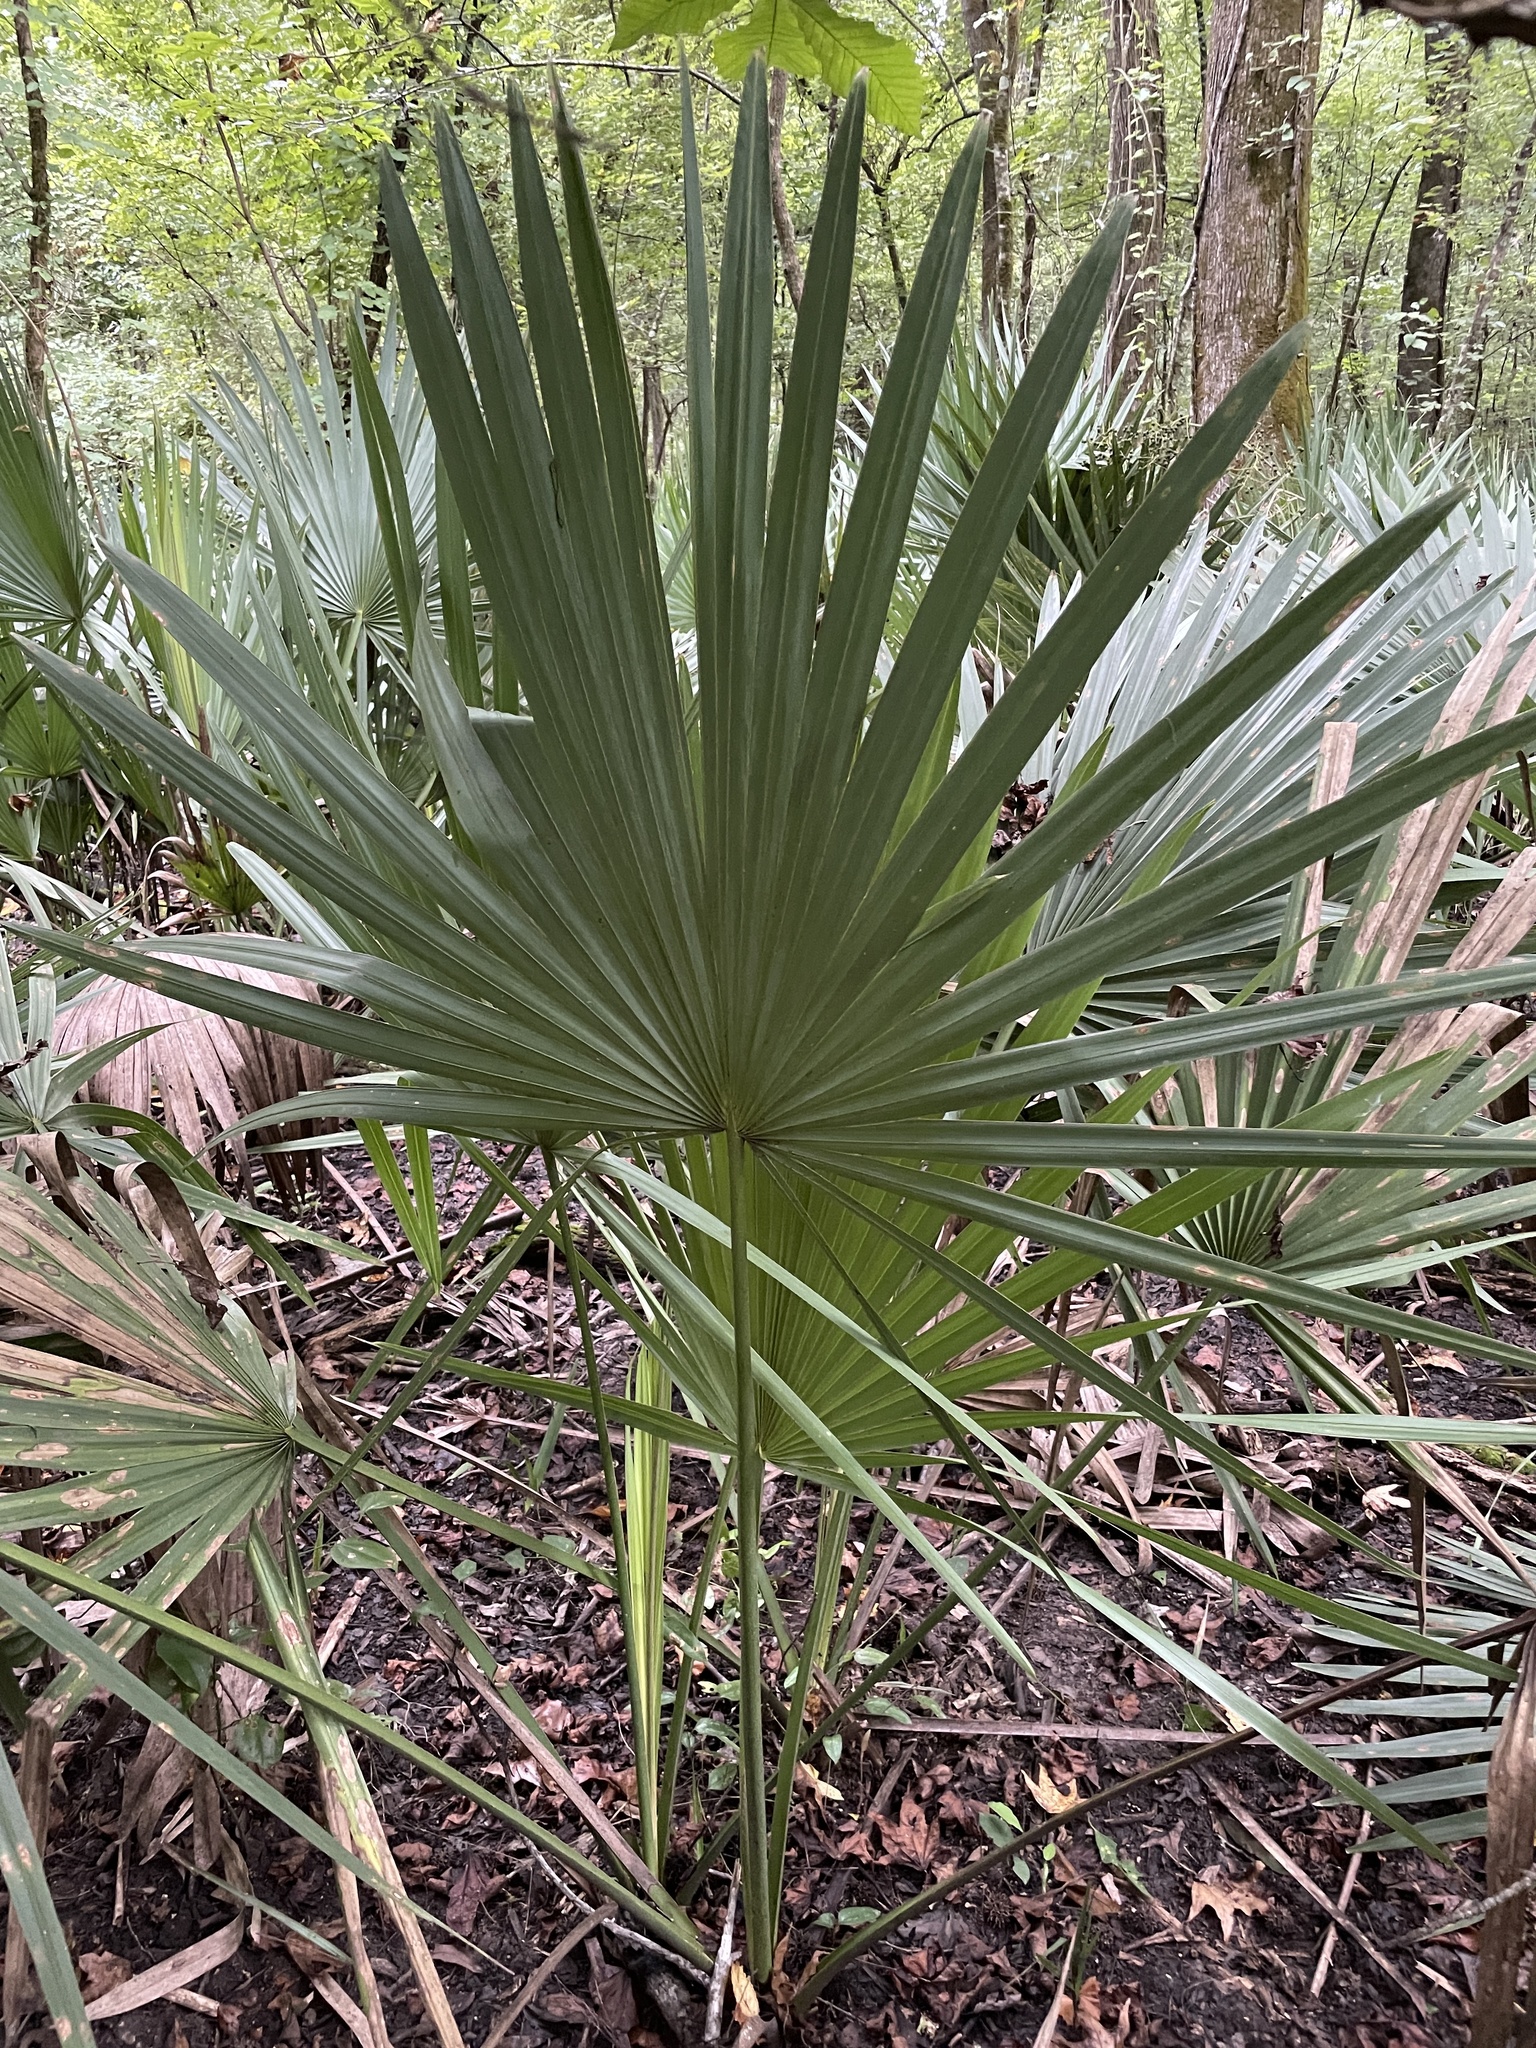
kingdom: Plantae
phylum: Tracheophyta
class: Liliopsida
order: Arecales
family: Arecaceae
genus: Sabal
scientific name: Sabal minor
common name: Dwarf palmetto
